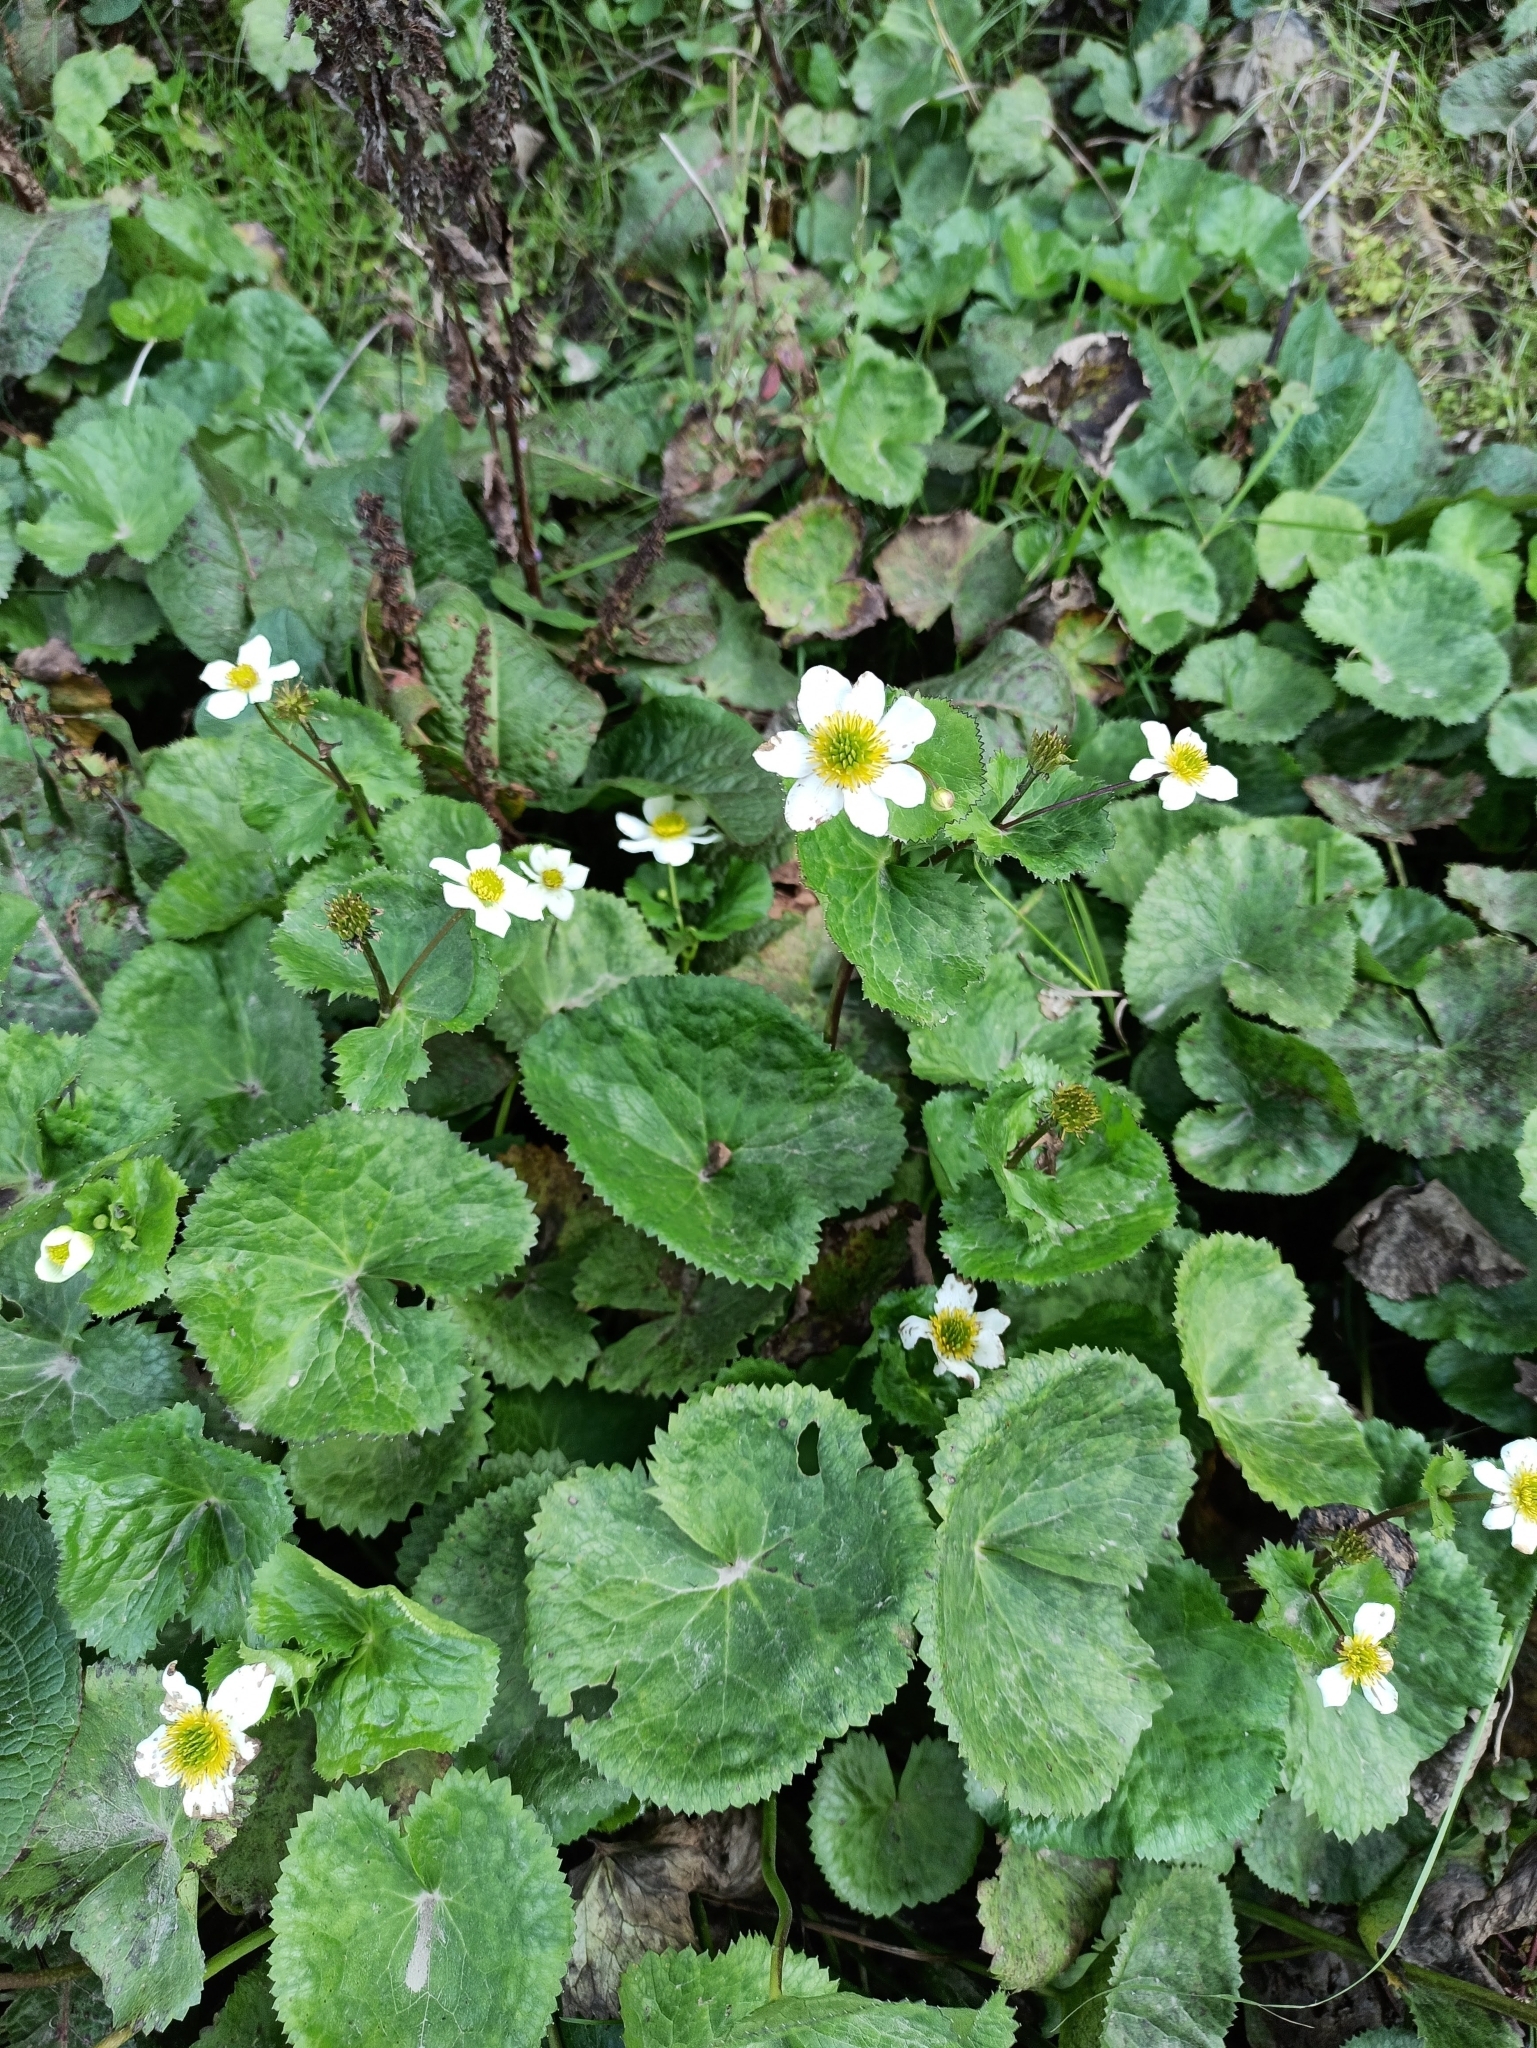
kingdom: Plantae
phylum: Tracheophyta
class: Magnoliopsida
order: Ranunculales
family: Ranunculaceae
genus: Caltha
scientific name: Caltha alba
